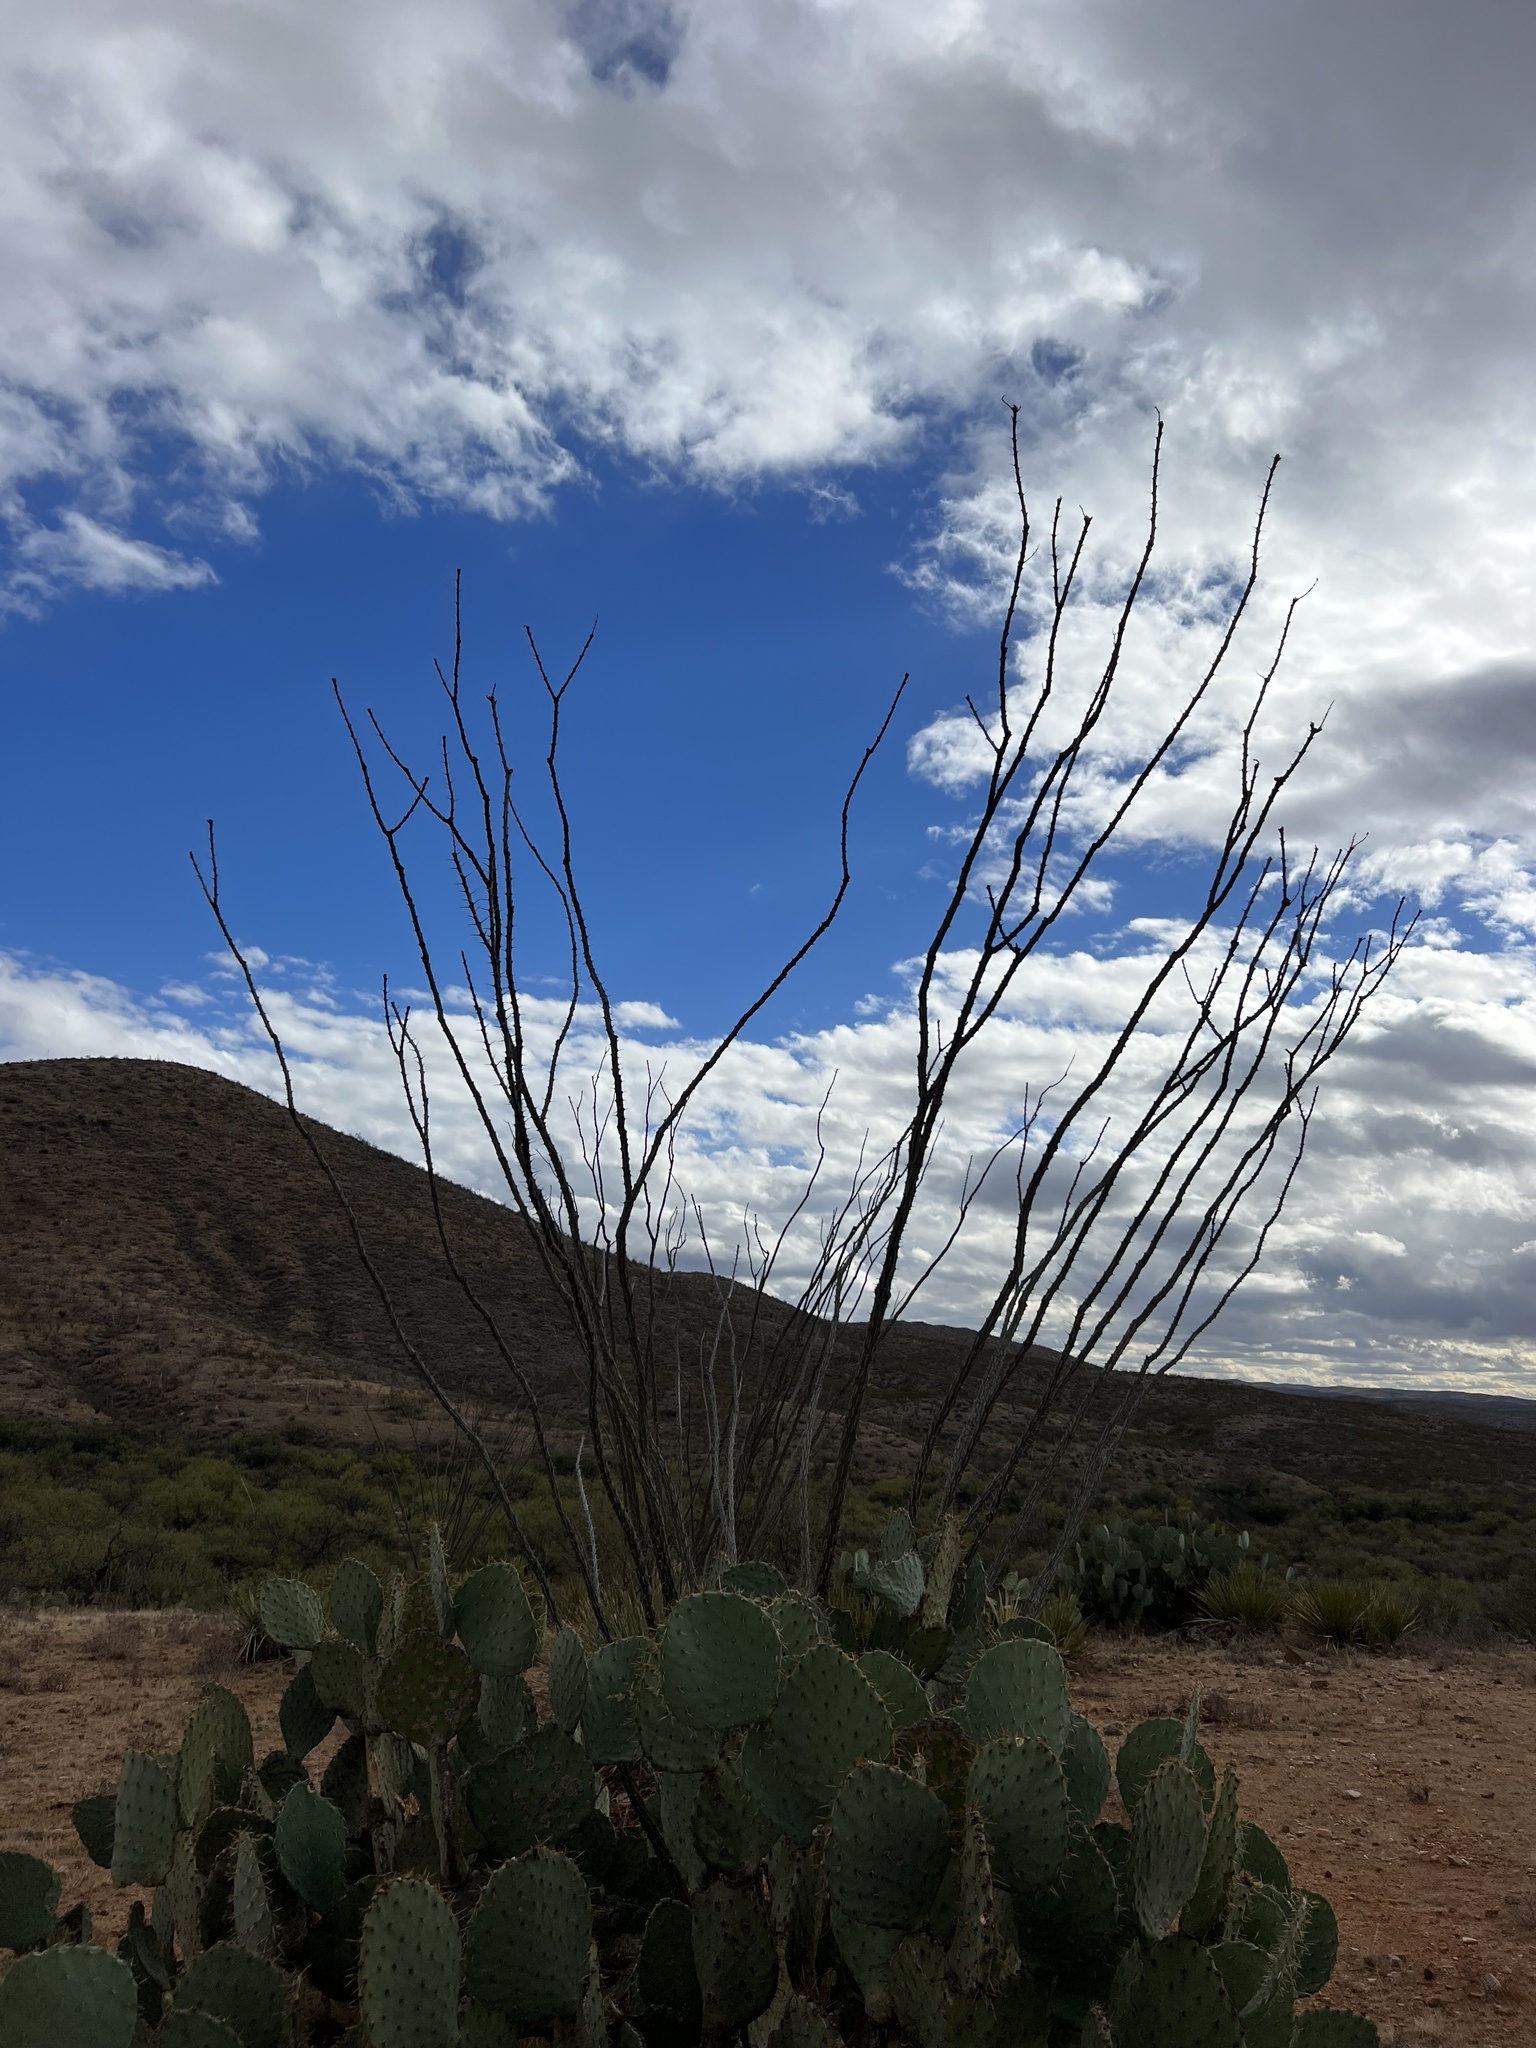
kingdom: Plantae
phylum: Tracheophyta
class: Magnoliopsida
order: Ericales
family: Fouquieriaceae
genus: Fouquieria
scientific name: Fouquieria splendens
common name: Vine-cactus
